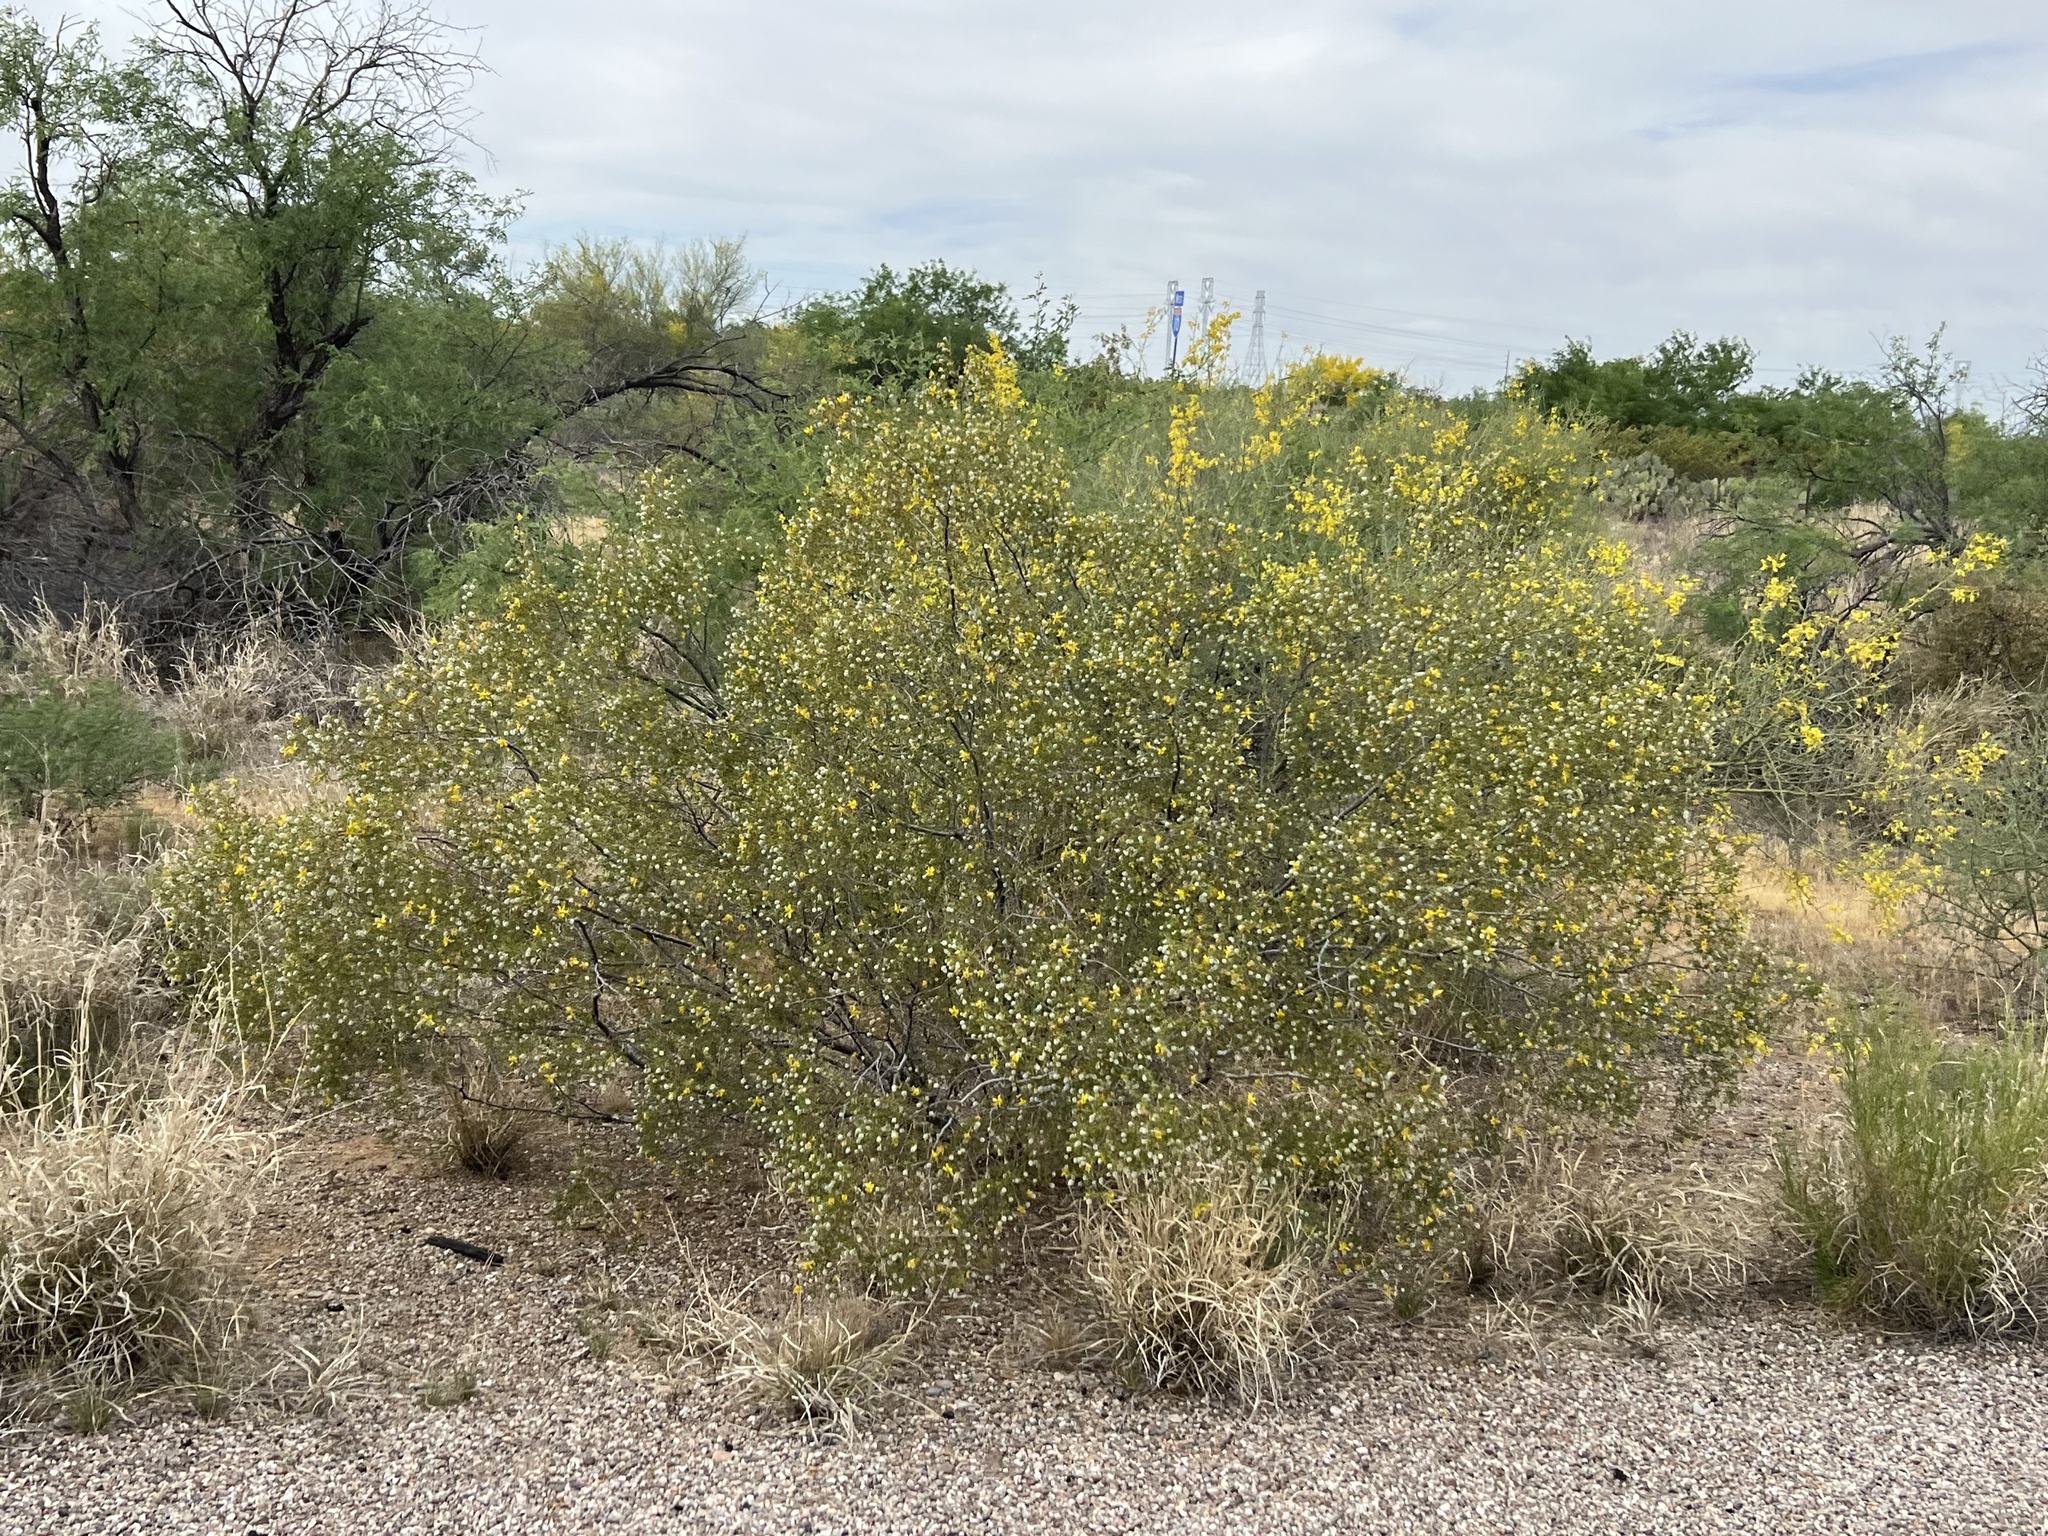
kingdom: Plantae
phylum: Tracheophyta
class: Magnoliopsida
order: Zygophyllales
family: Zygophyllaceae
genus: Larrea
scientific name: Larrea tridentata
